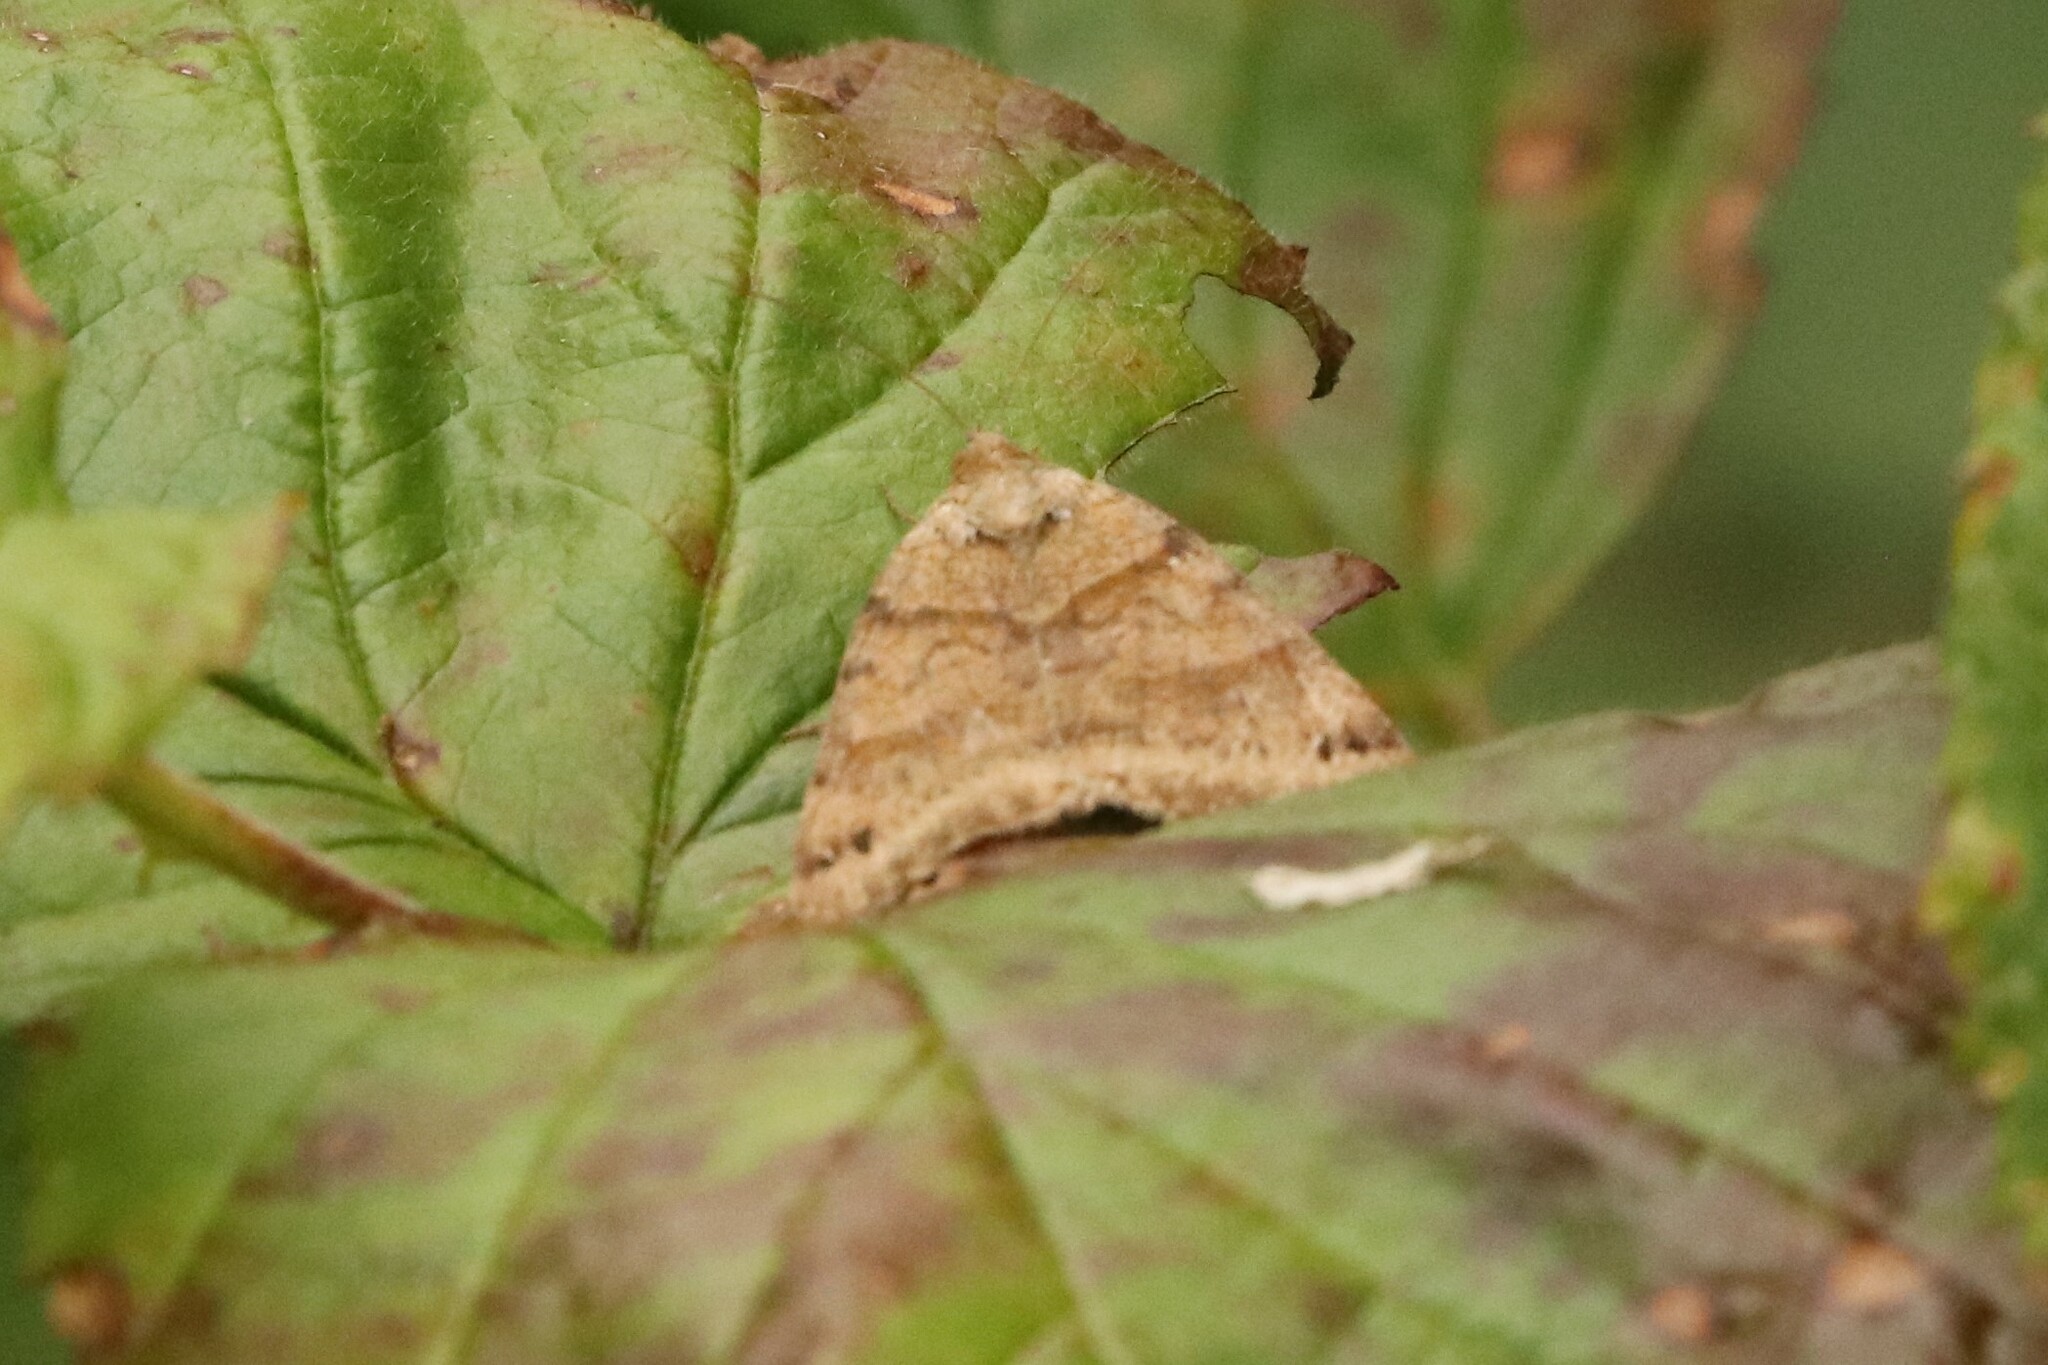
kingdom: Animalia
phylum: Arthropoda
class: Insecta
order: Lepidoptera
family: Erebidae
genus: Caenurgina
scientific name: Caenurgina crassiuscula
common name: Double-barred
